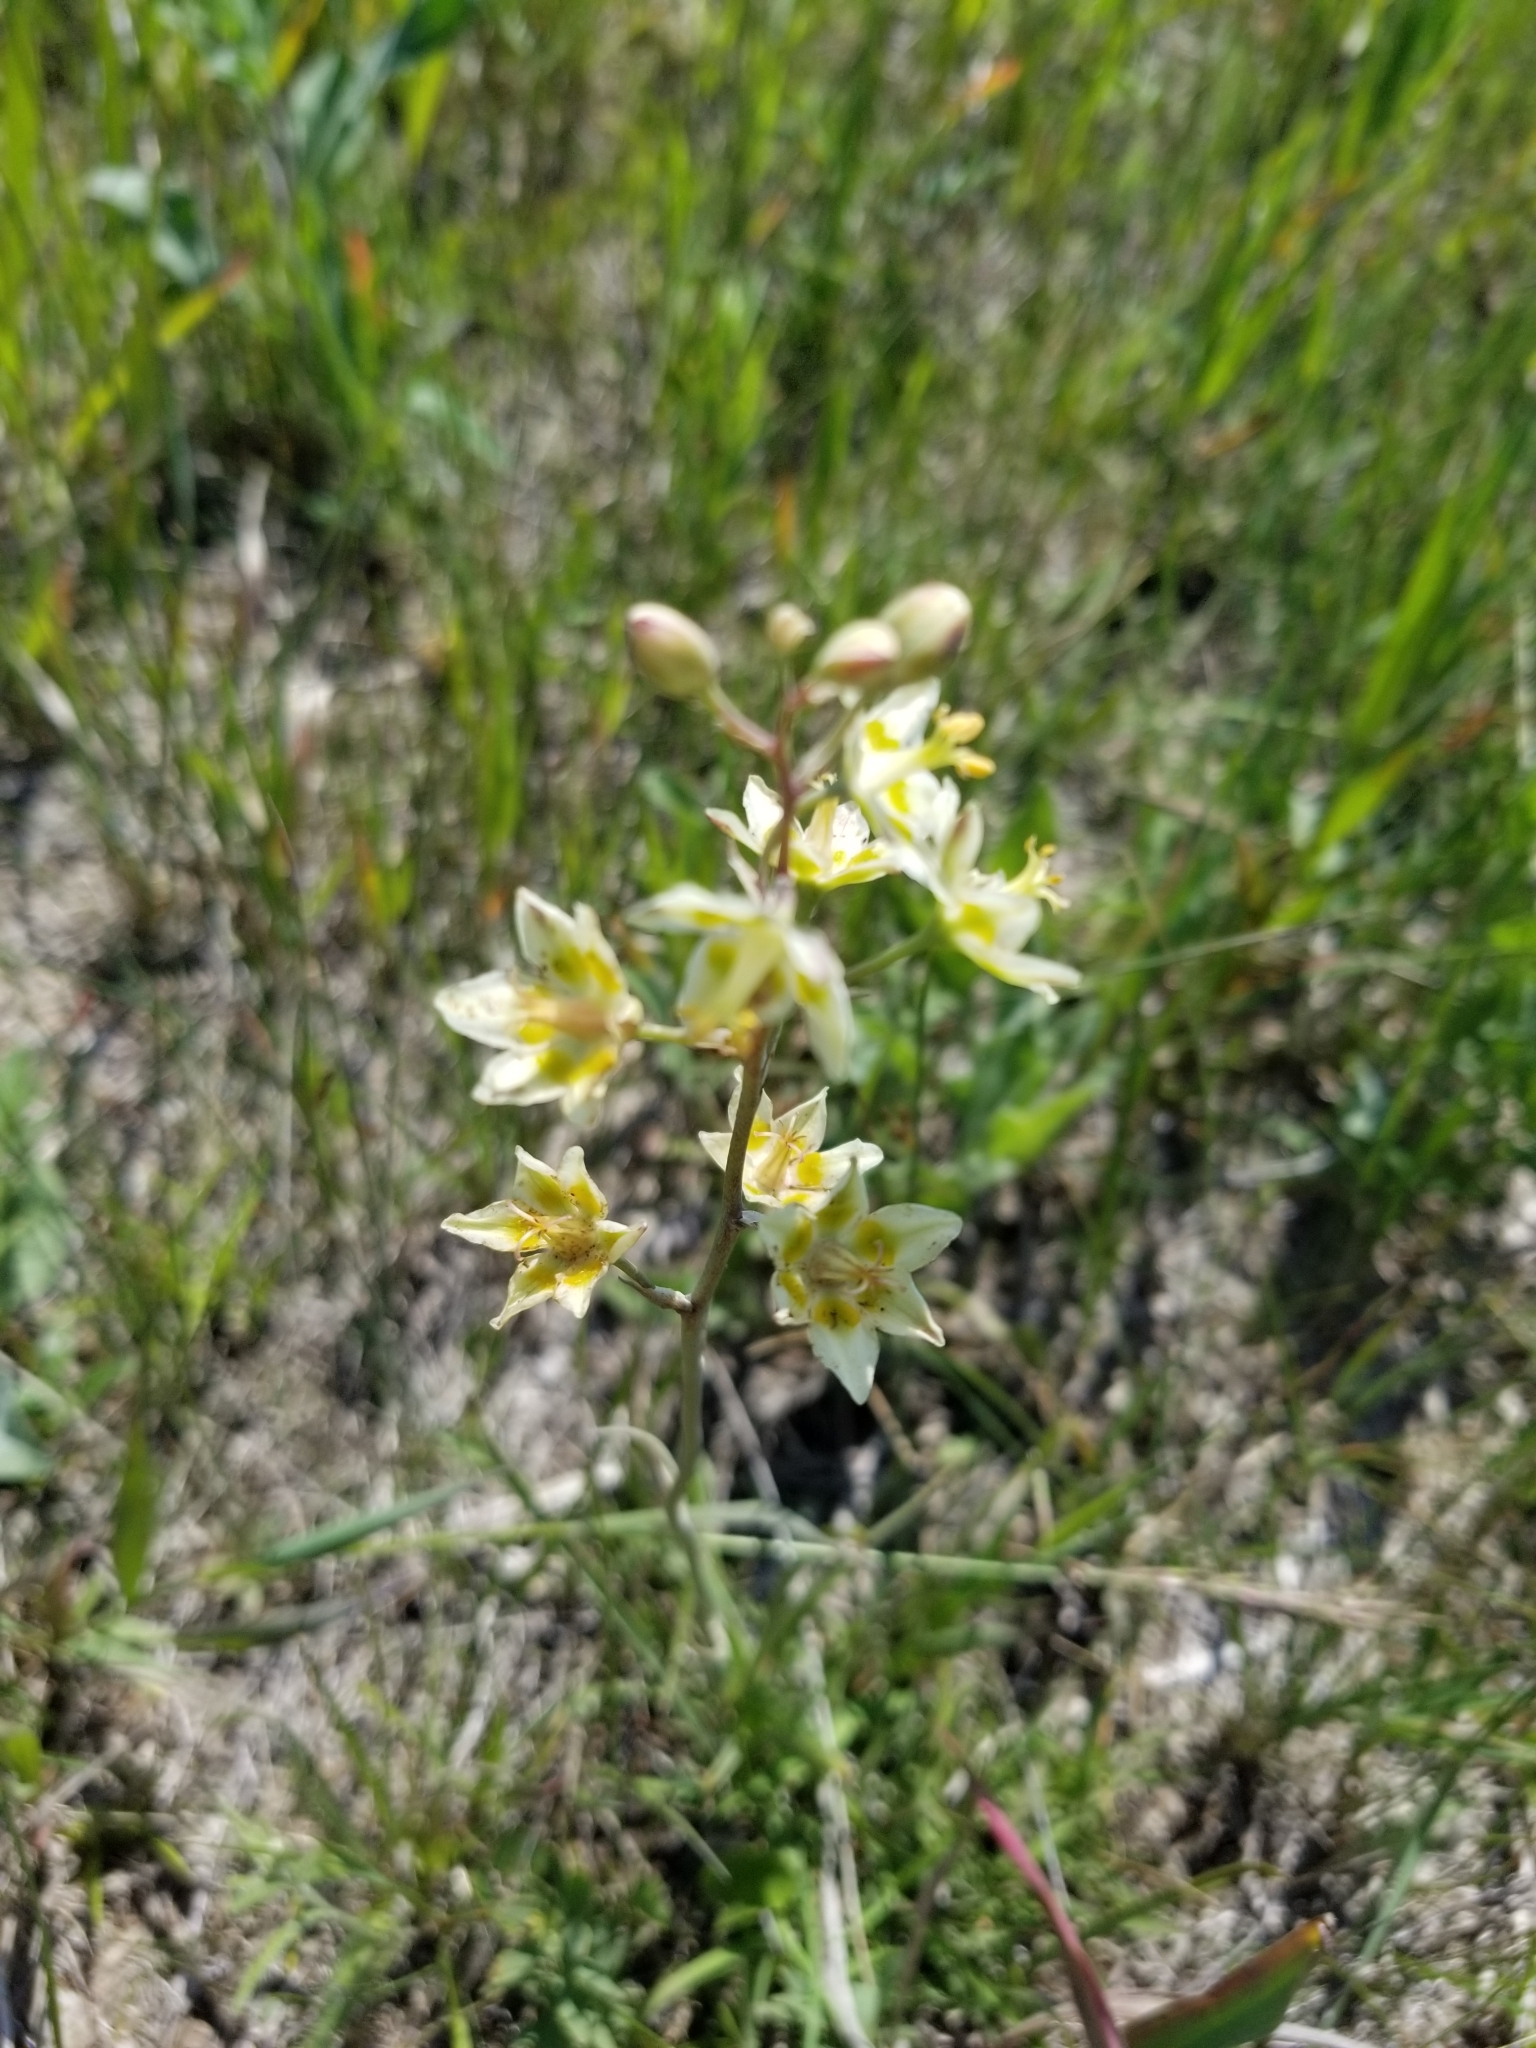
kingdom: Plantae
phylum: Tracheophyta
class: Liliopsida
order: Liliales
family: Melanthiaceae
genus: Anticlea
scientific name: Anticlea elegans
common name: Mountain death camas
